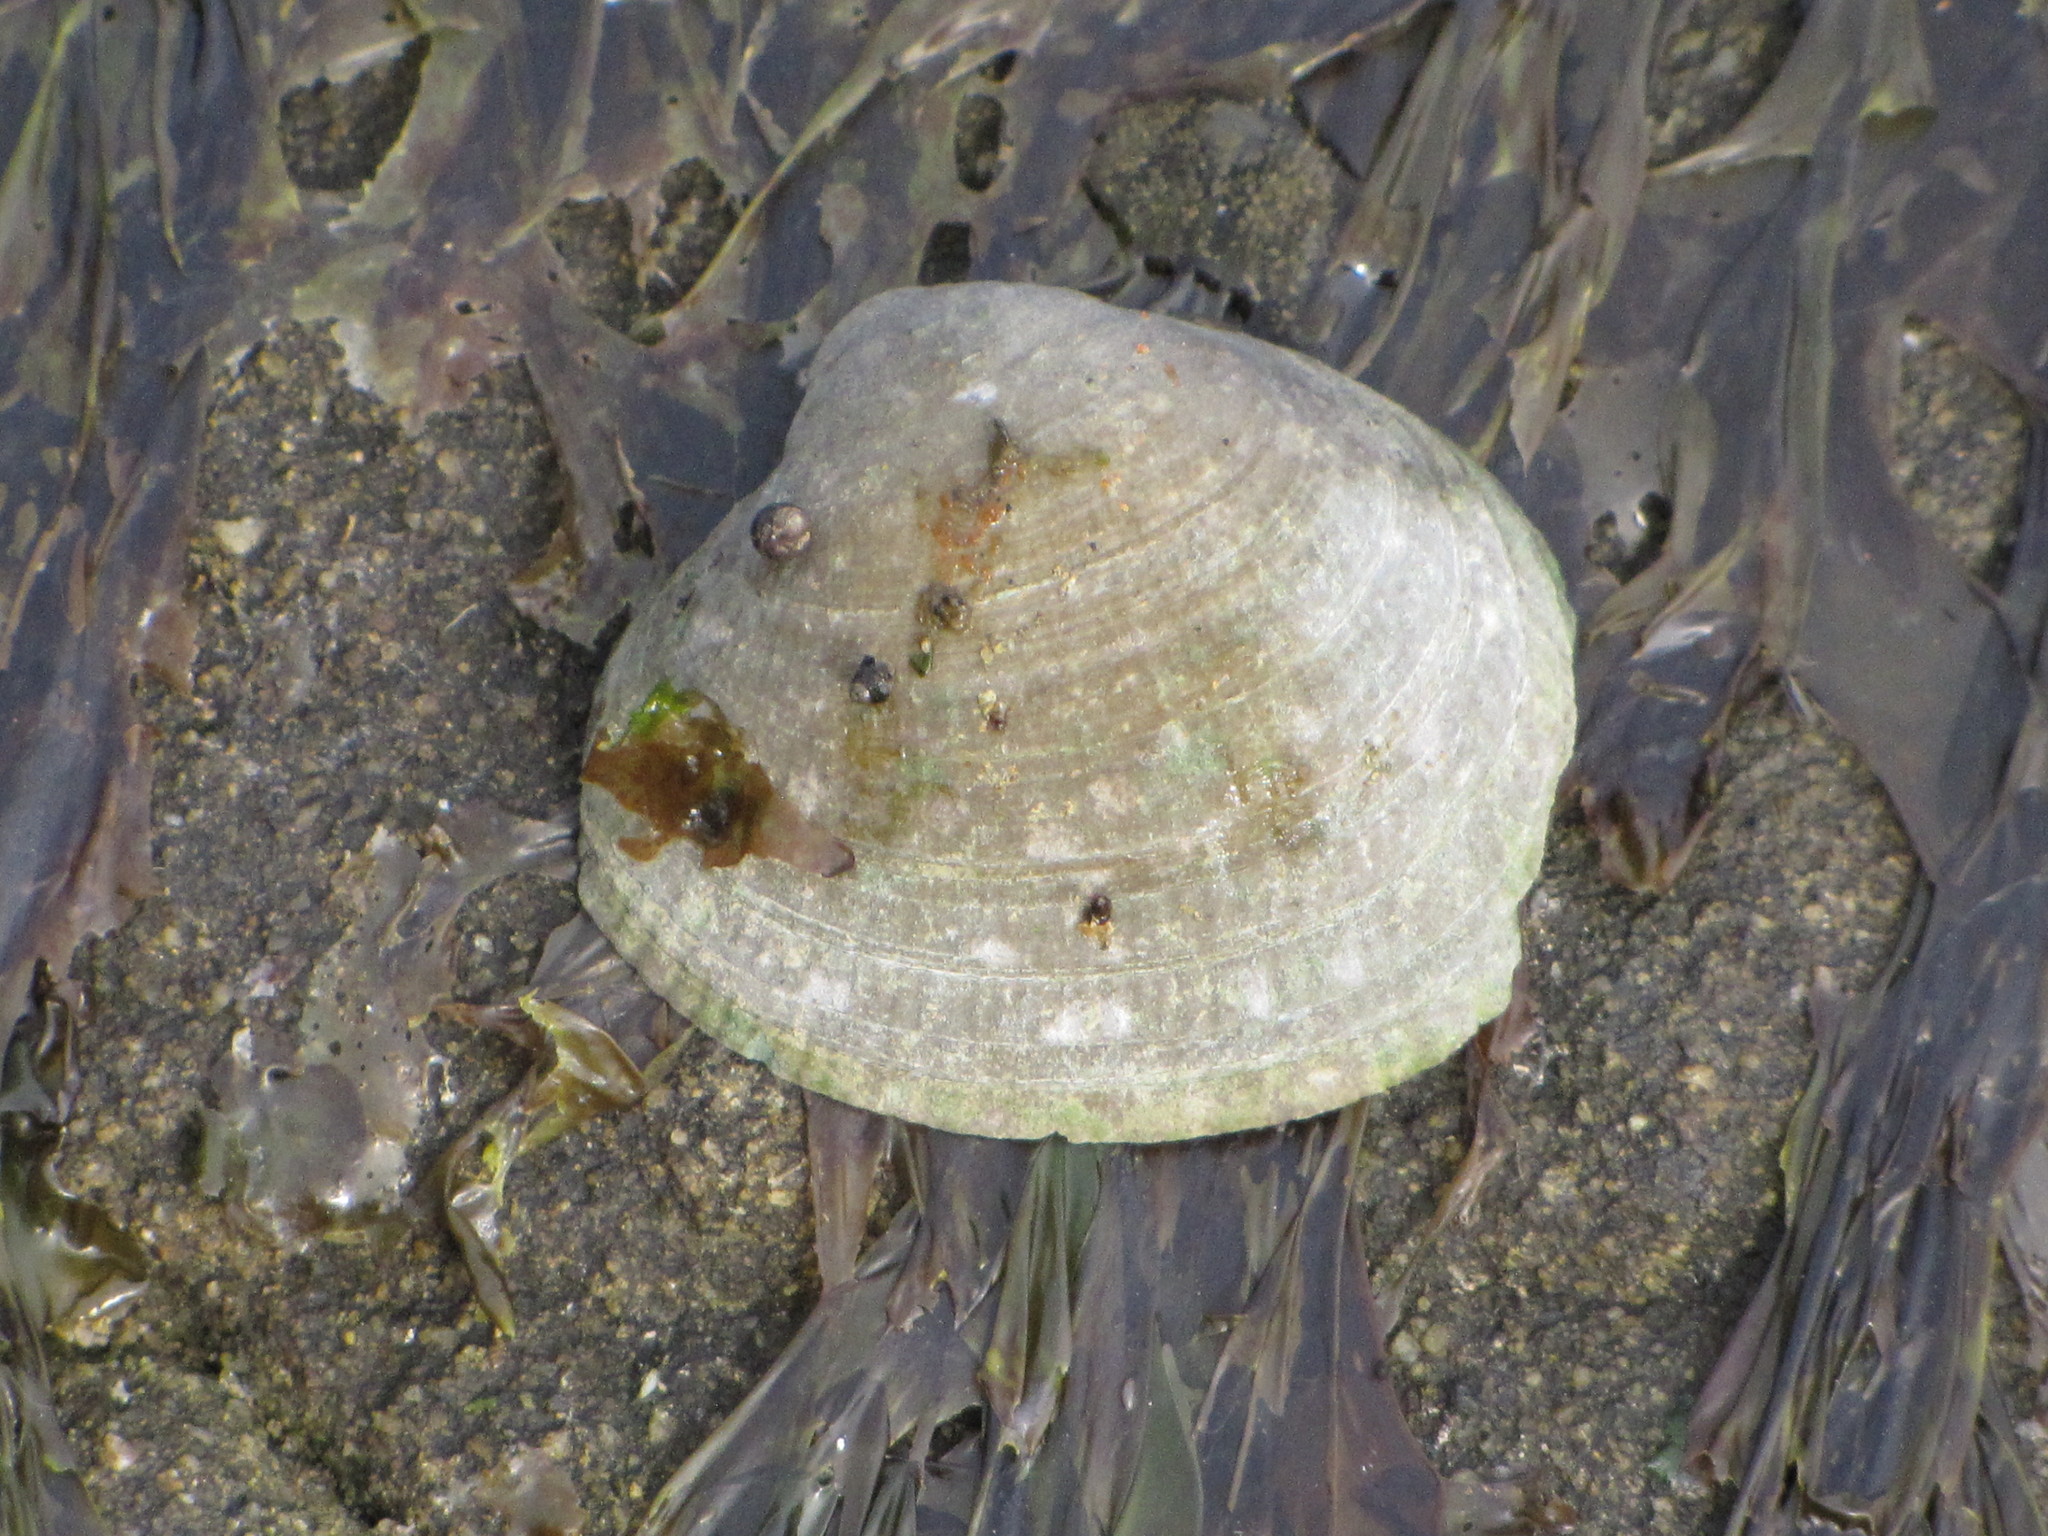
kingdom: Animalia
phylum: Mollusca
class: Bivalvia
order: Venerida
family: Veneridae
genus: Ruditapes
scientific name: Ruditapes philippinarum
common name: Manila clam
